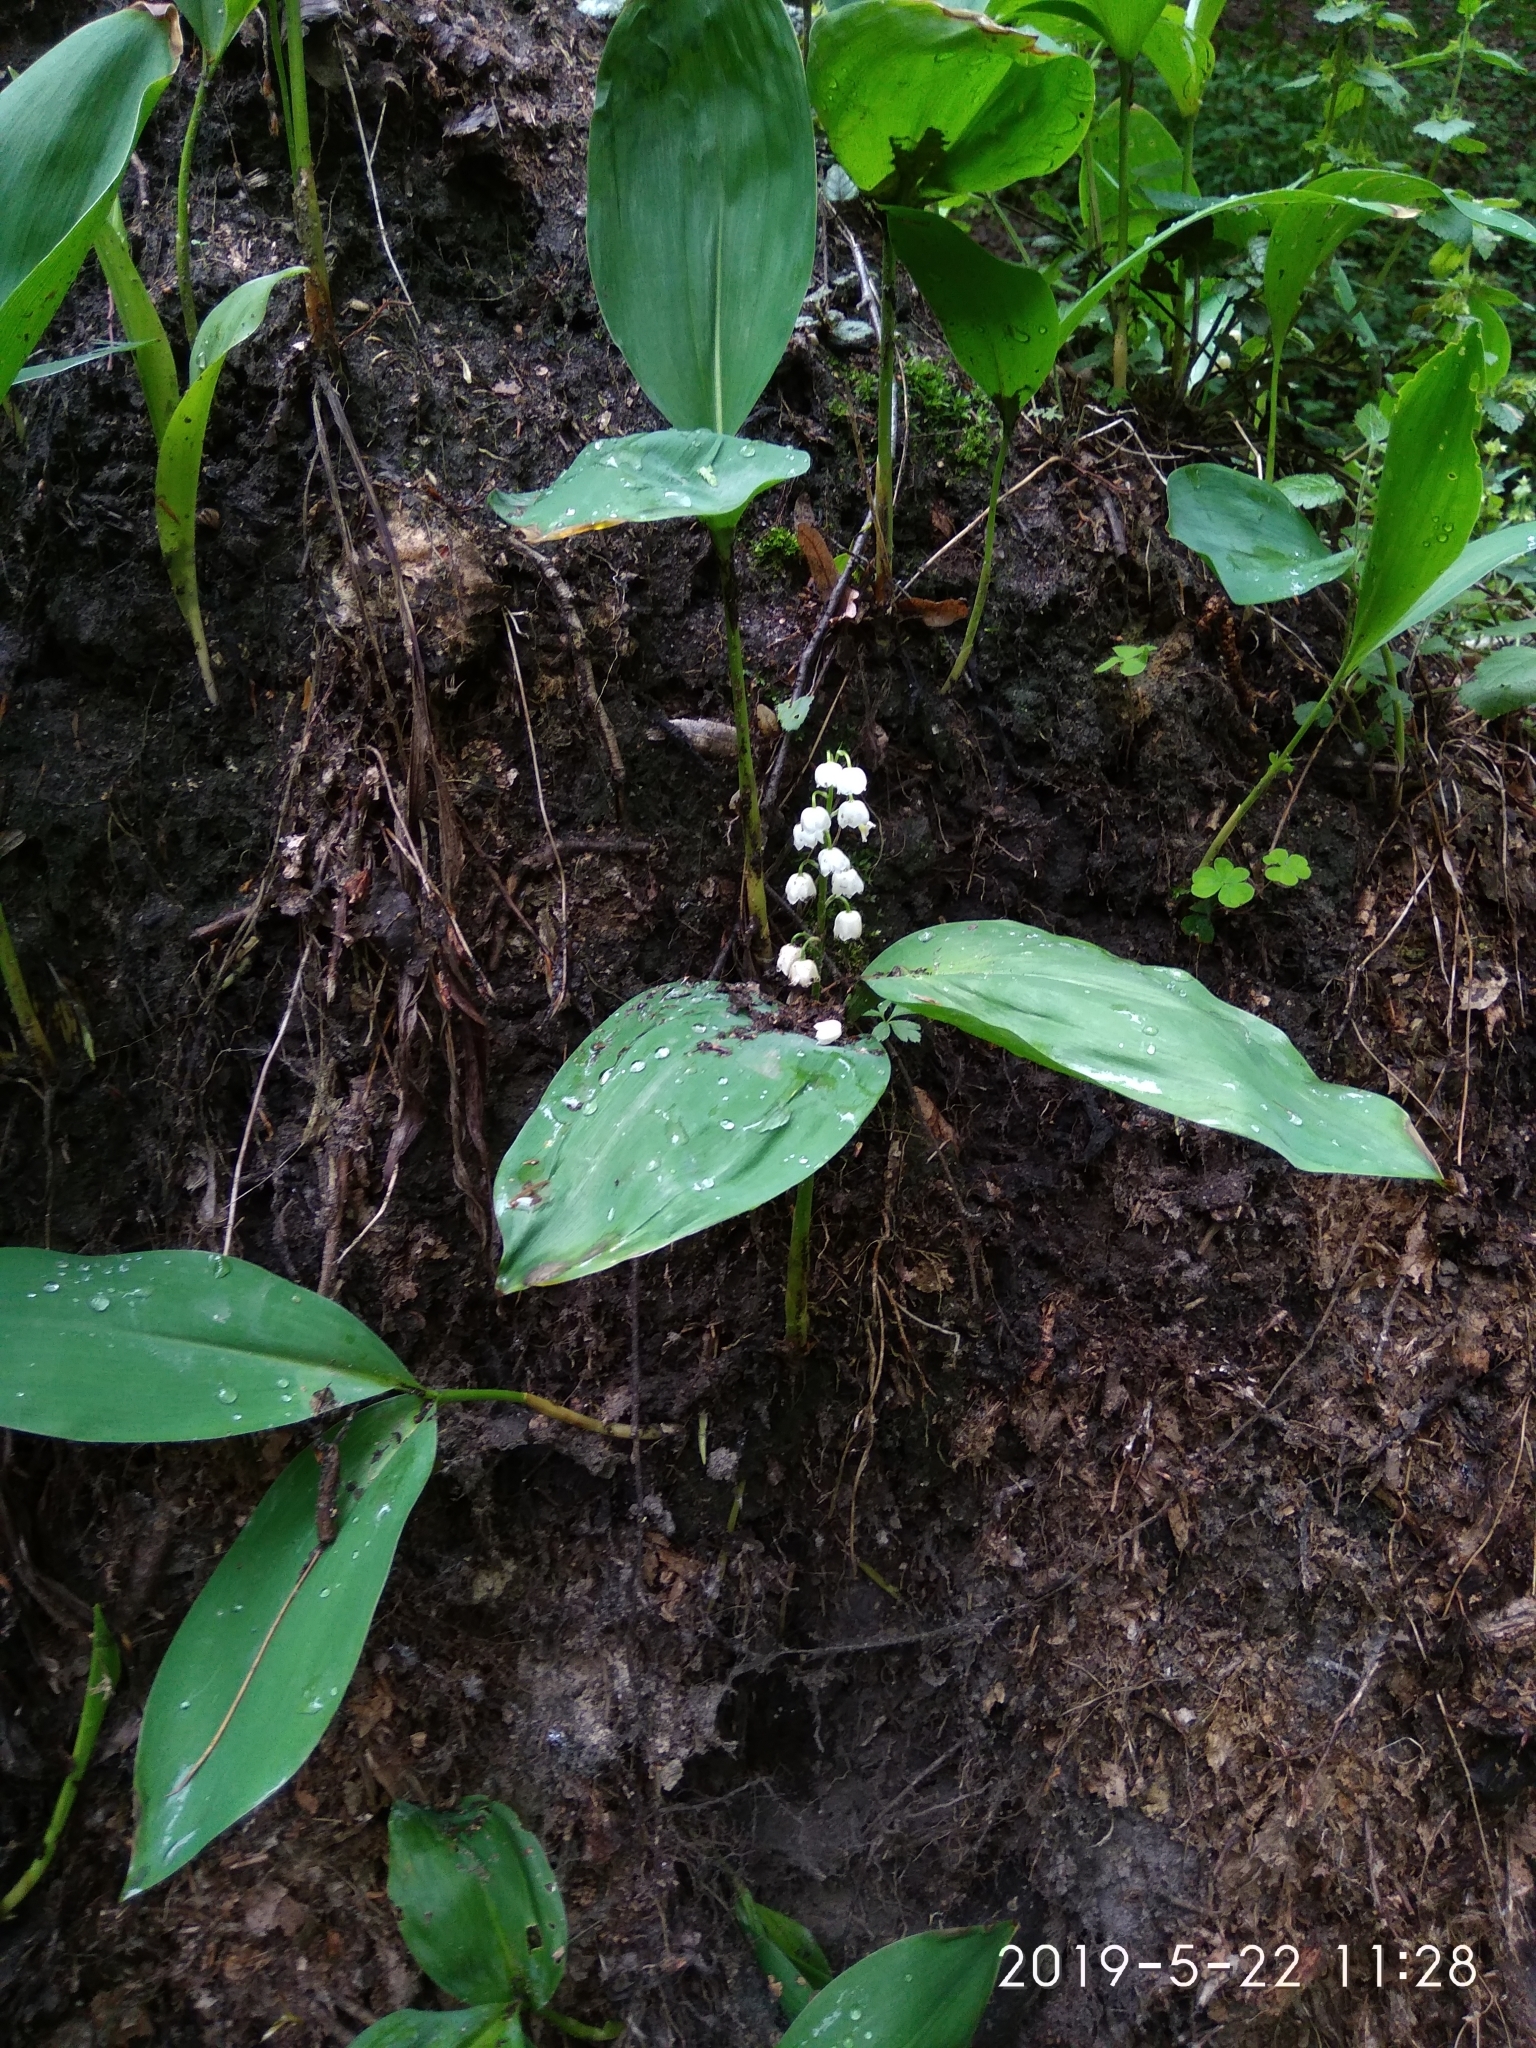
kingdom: Plantae
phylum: Tracheophyta
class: Liliopsida
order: Asparagales
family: Asparagaceae
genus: Convallaria
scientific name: Convallaria majalis
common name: Lily-of-the-valley
